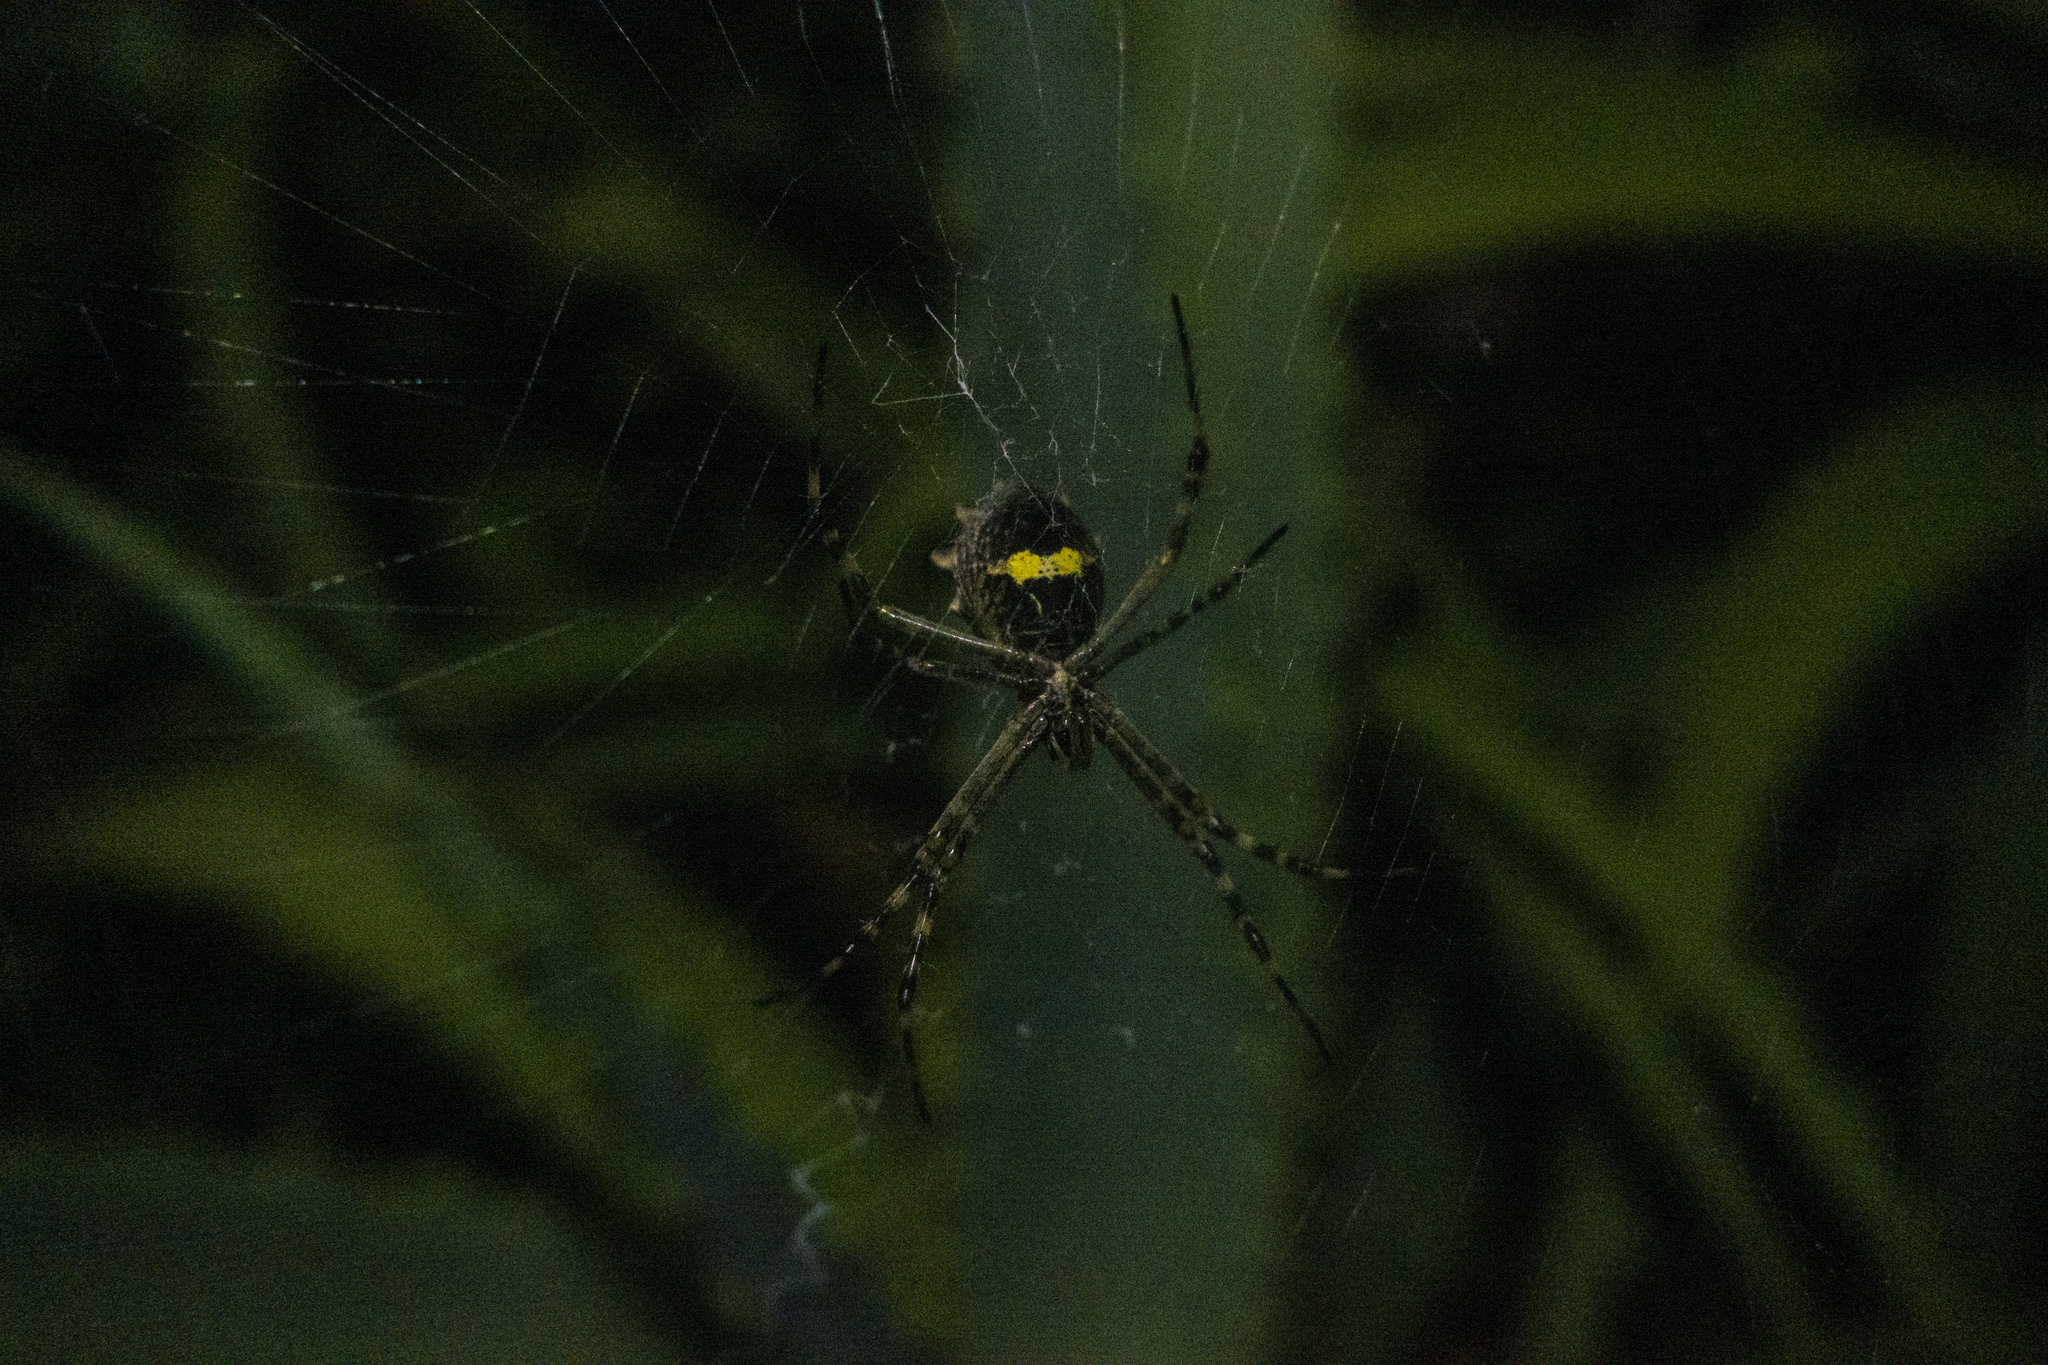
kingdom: Animalia
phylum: Arthropoda
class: Arachnida
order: Araneae
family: Araneidae
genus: Argiope
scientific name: Argiope argentata
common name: Orb weavers
